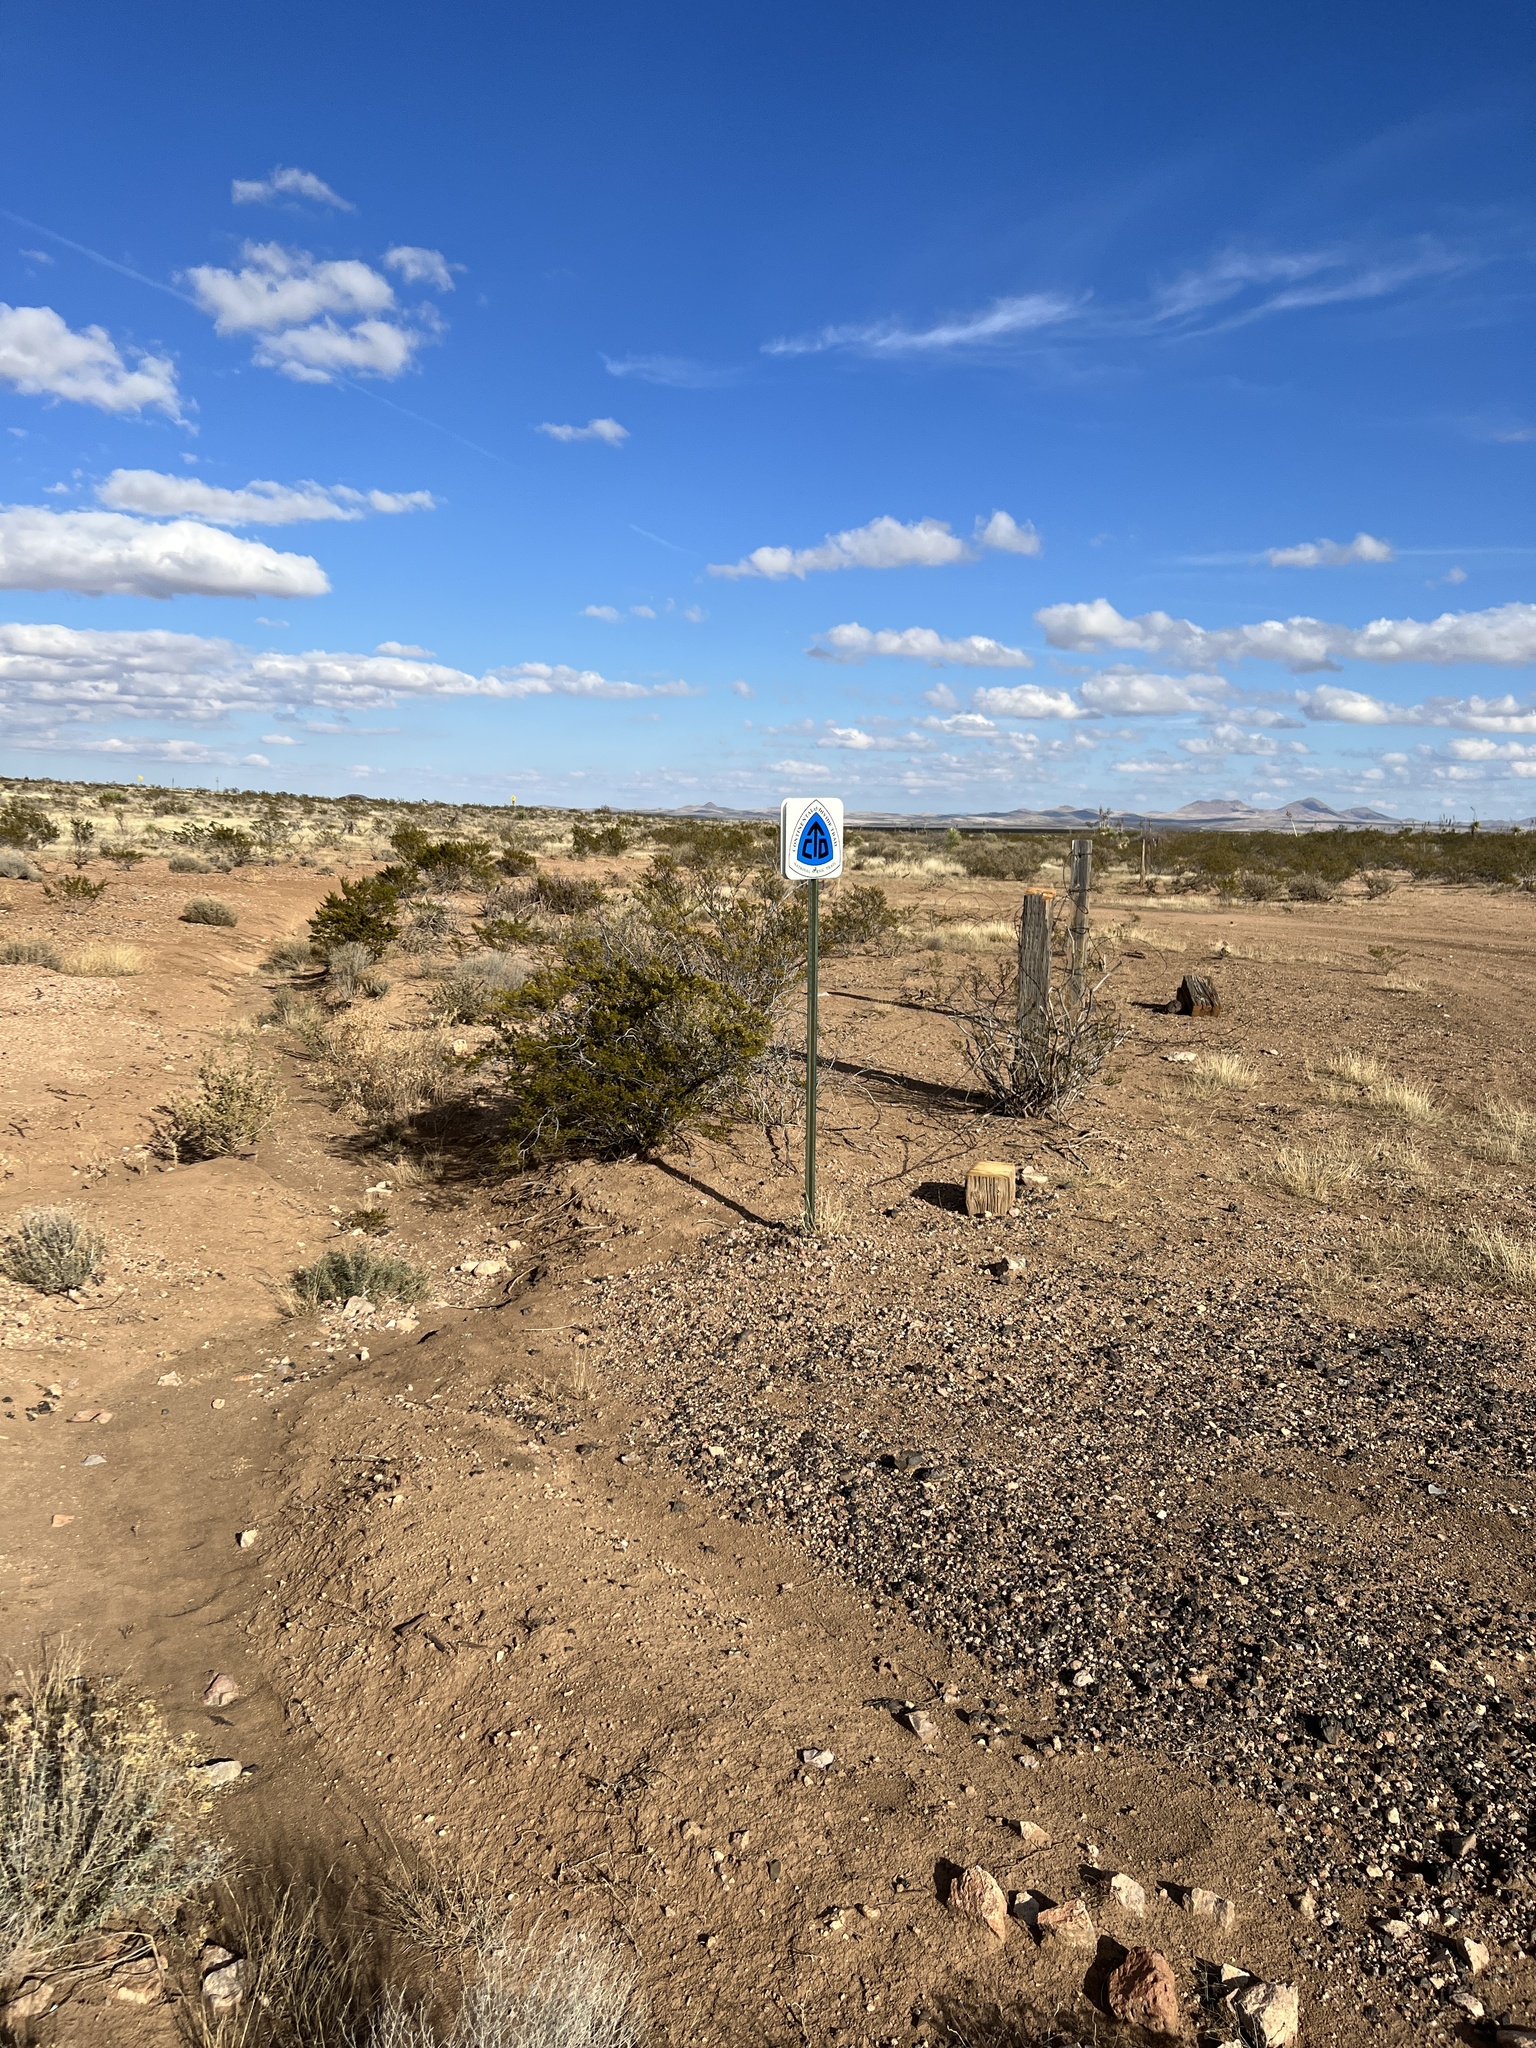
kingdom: Plantae
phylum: Tracheophyta
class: Magnoliopsida
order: Zygophyllales
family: Zygophyllaceae
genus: Larrea
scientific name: Larrea tridentata
